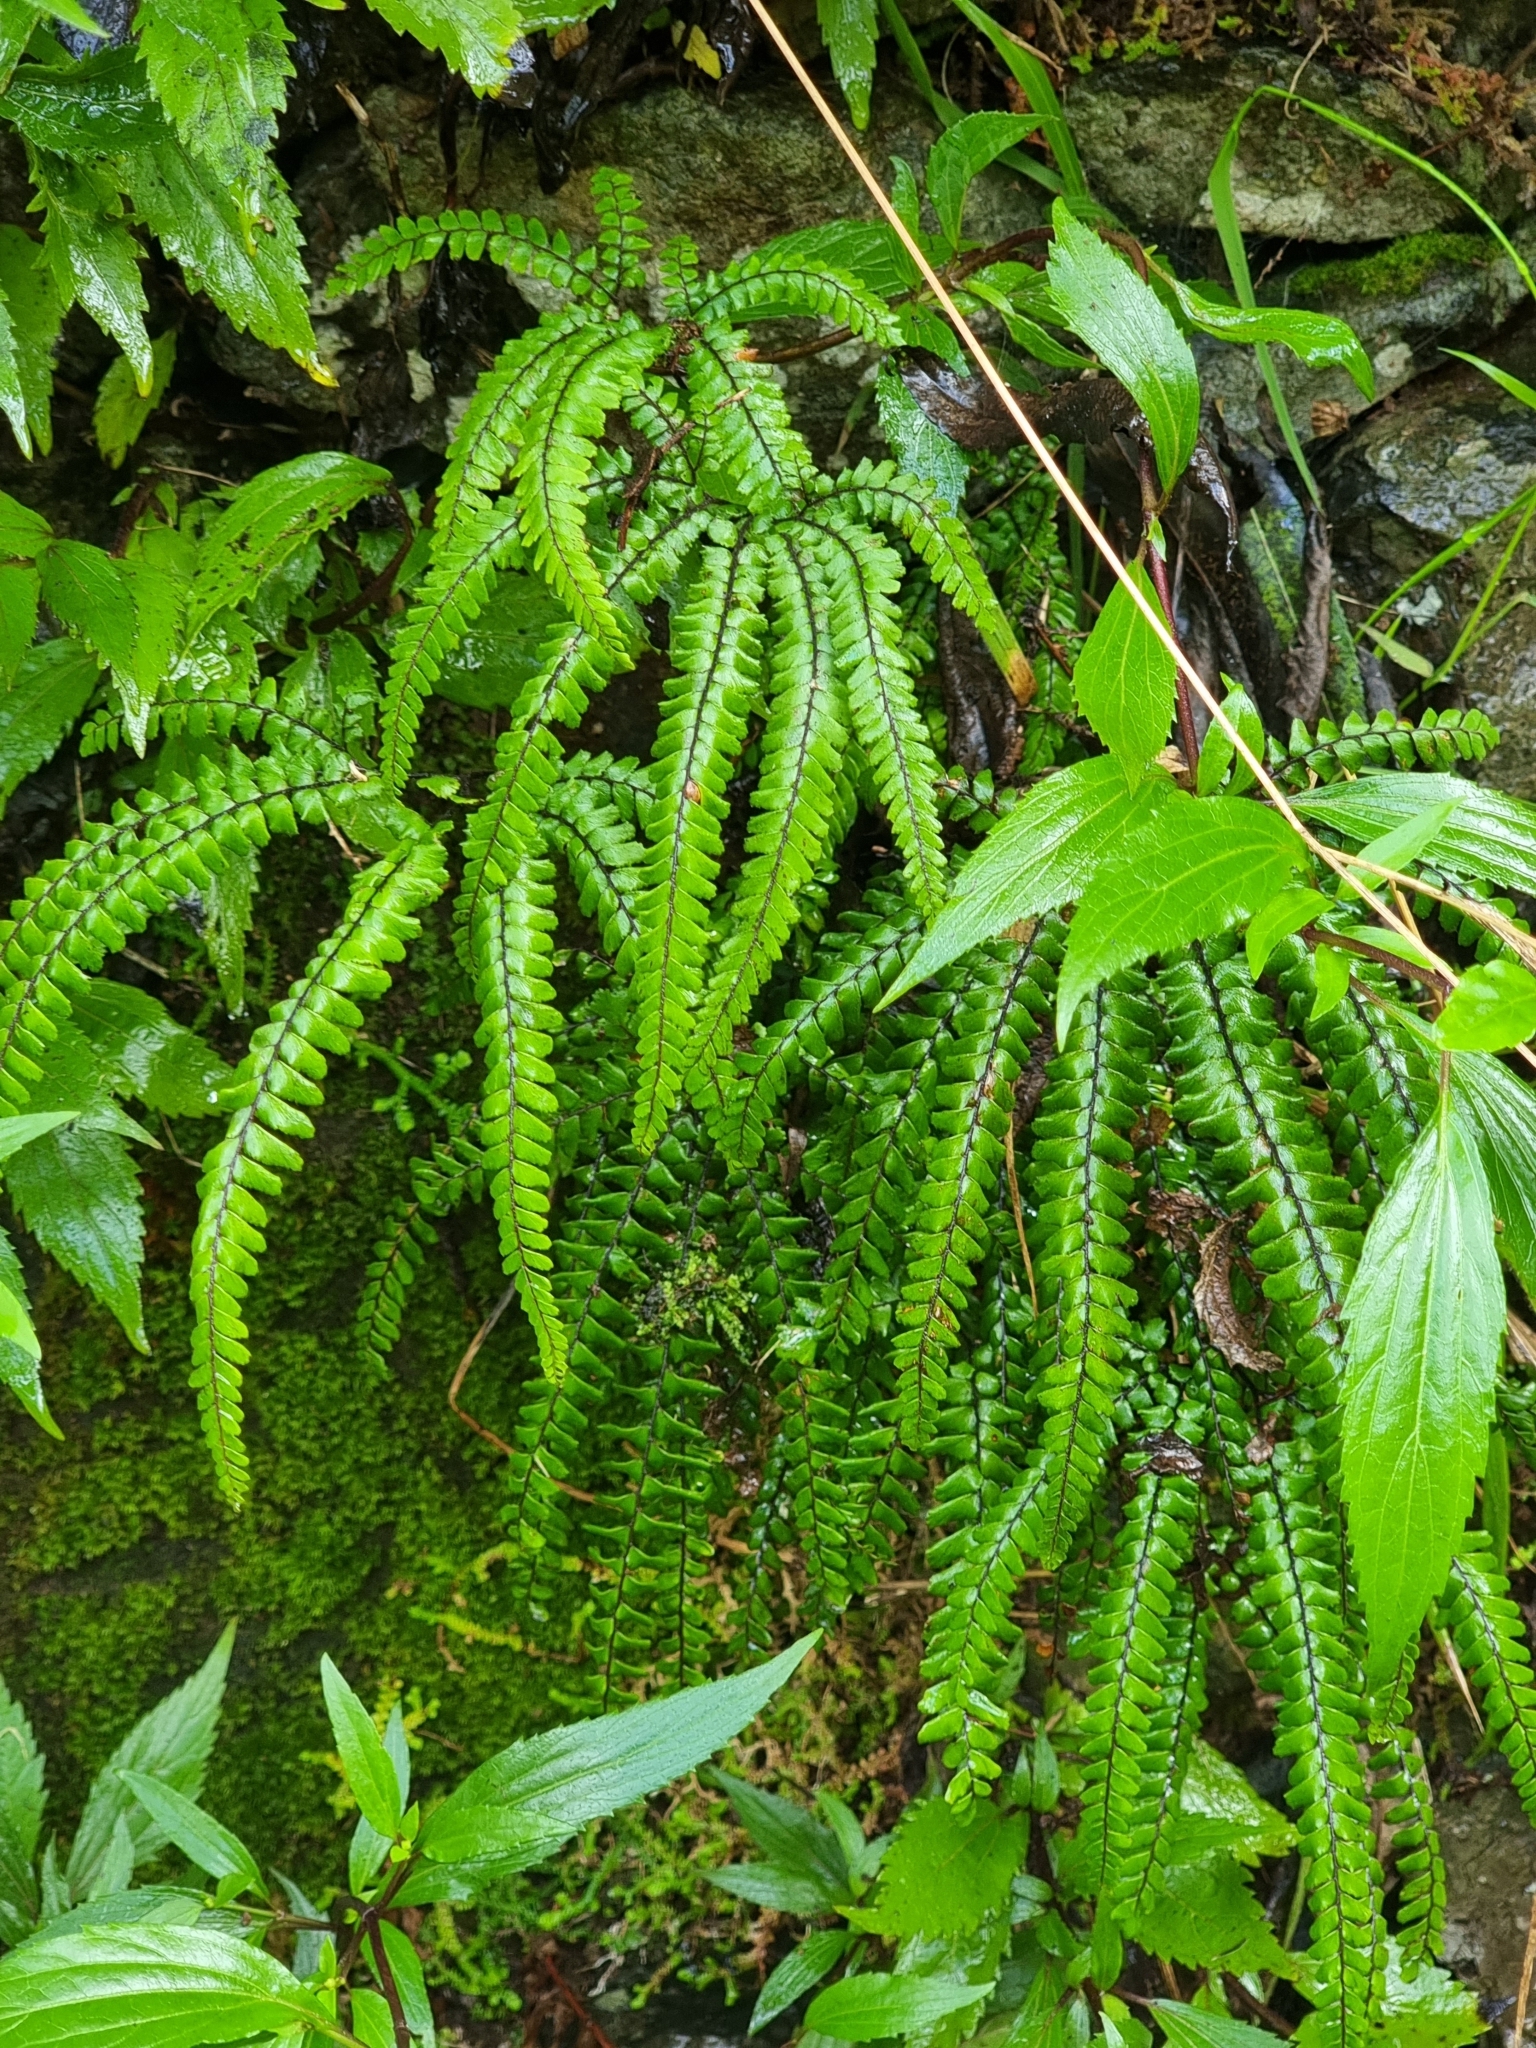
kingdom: Plantae
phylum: Tracheophyta
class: Polypodiopsida
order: Polypodiales
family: Pteridaceae
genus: Adiantum
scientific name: Adiantum hispidulum
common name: Rough maidenhair
